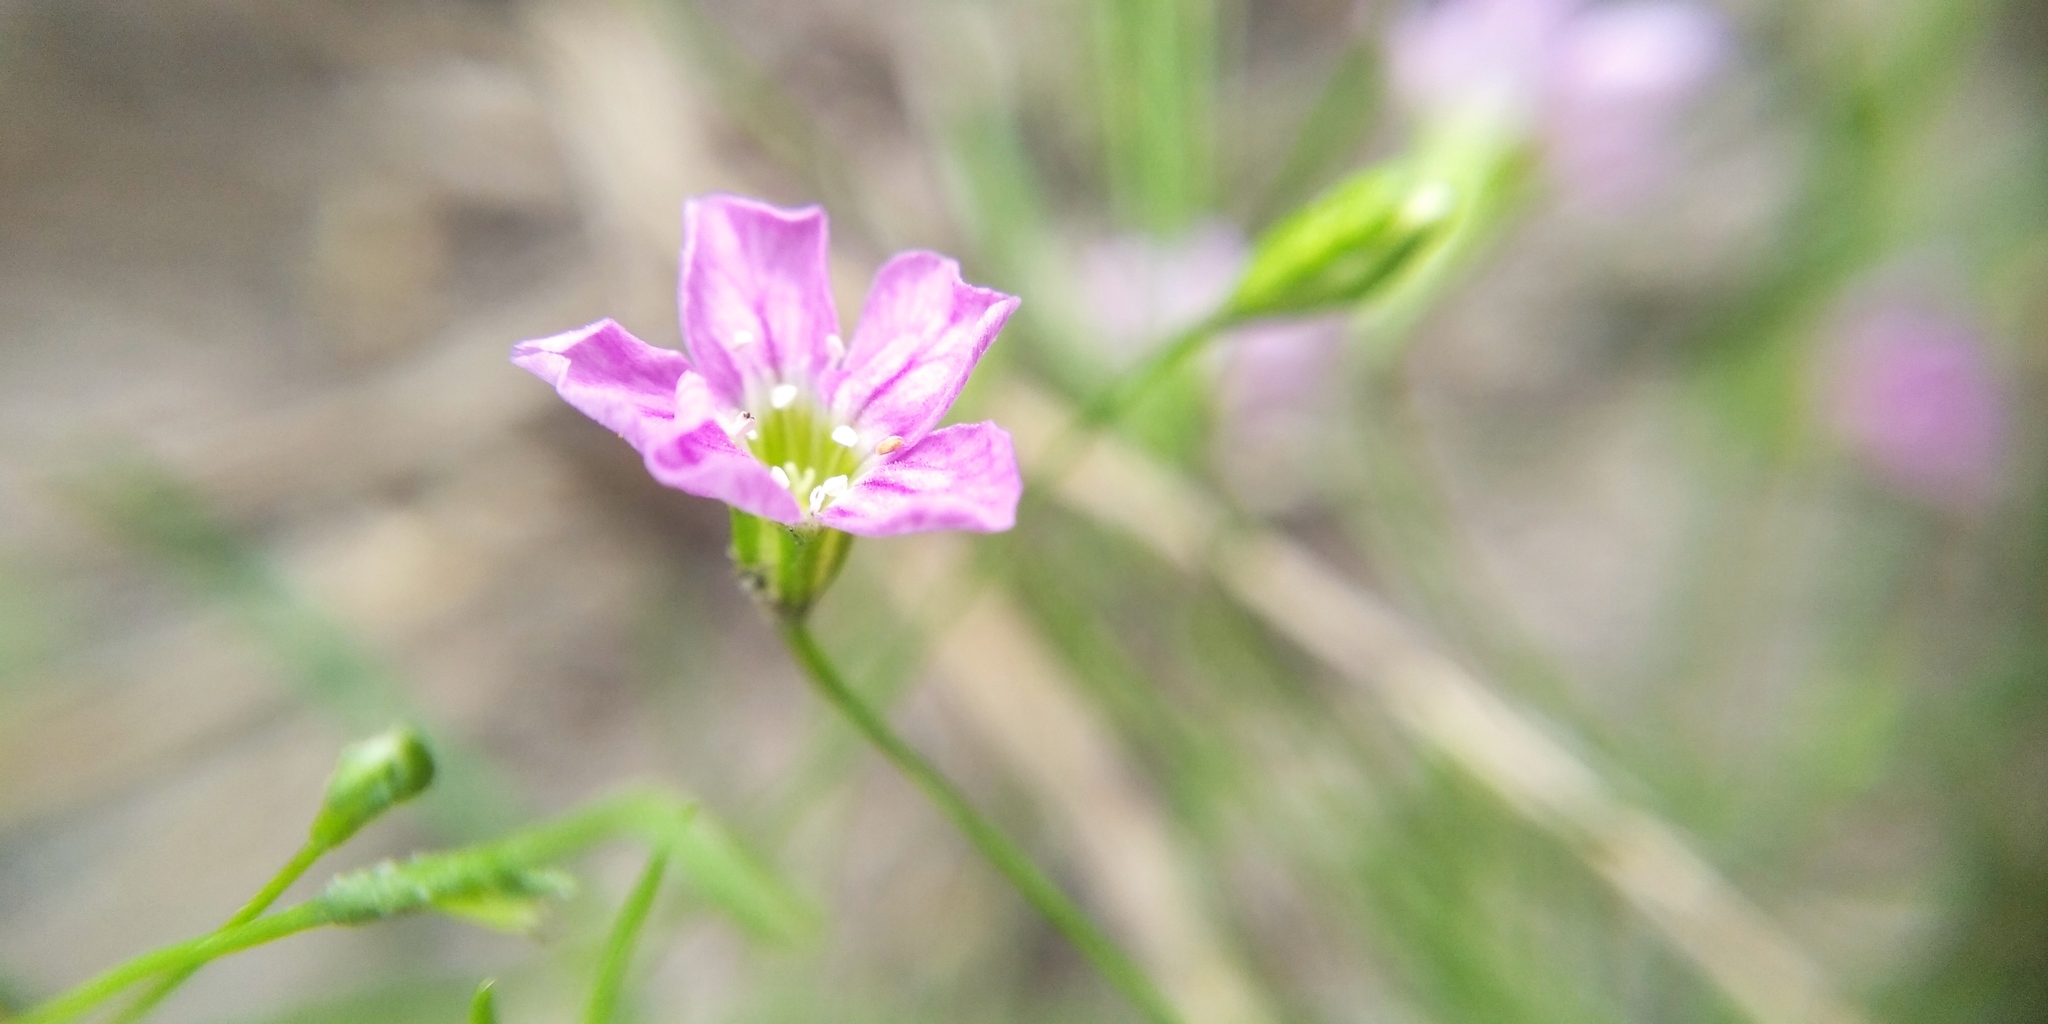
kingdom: Plantae
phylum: Tracheophyta
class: Magnoliopsida
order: Caryophyllales
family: Caryophyllaceae
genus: Psammophiliella
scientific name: Psammophiliella muralis
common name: Cushion baby's-breath
